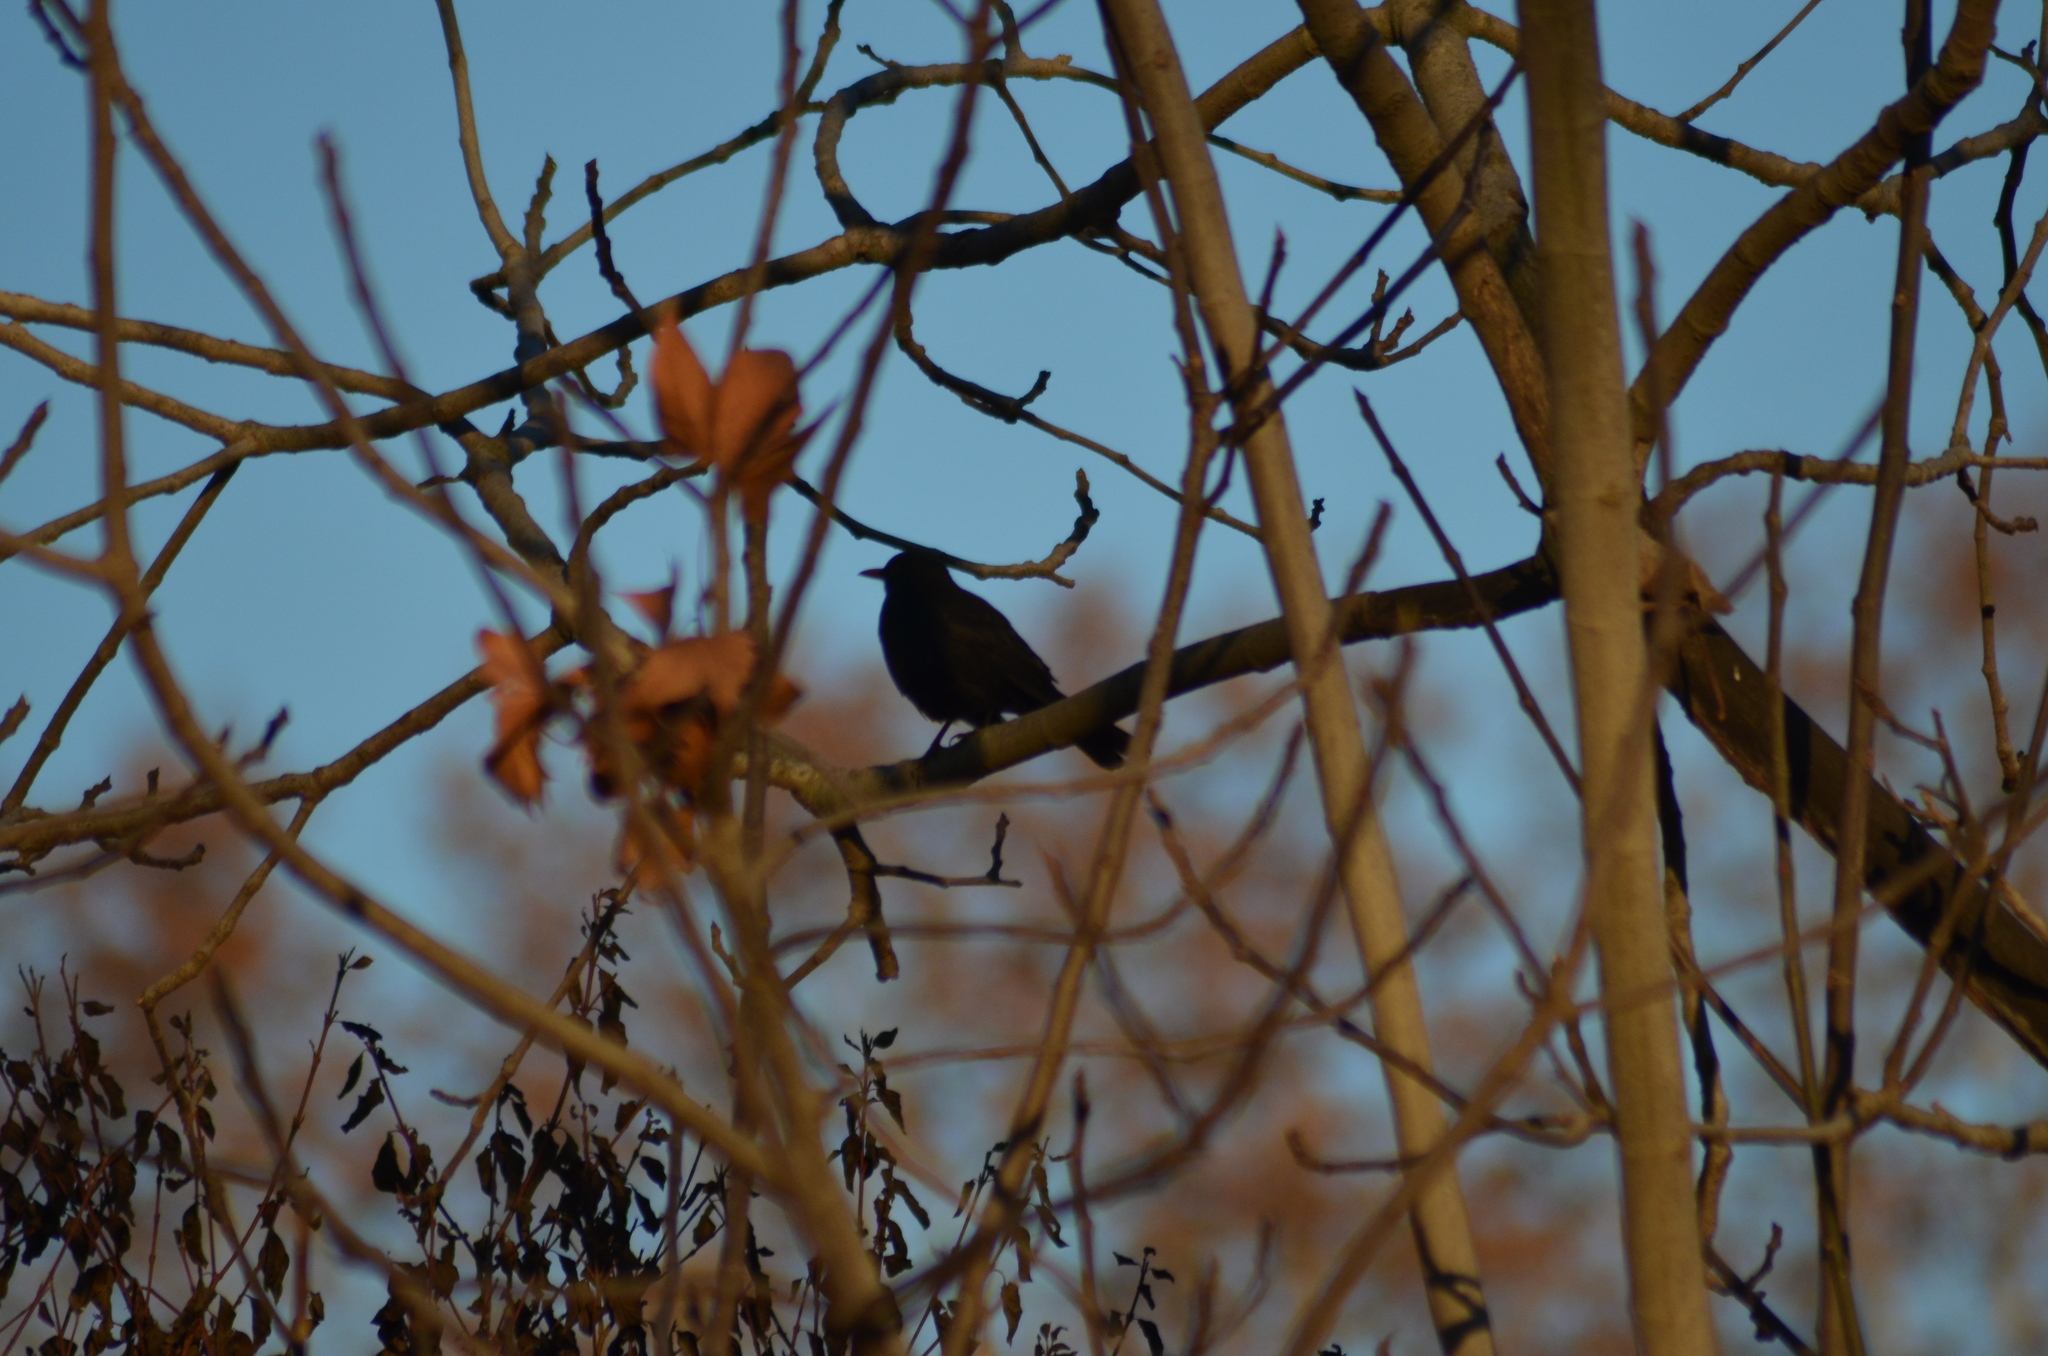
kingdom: Animalia
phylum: Chordata
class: Aves
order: Passeriformes
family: Turdidae
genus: Turdus
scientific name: Turdus merula
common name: Common blackbird
